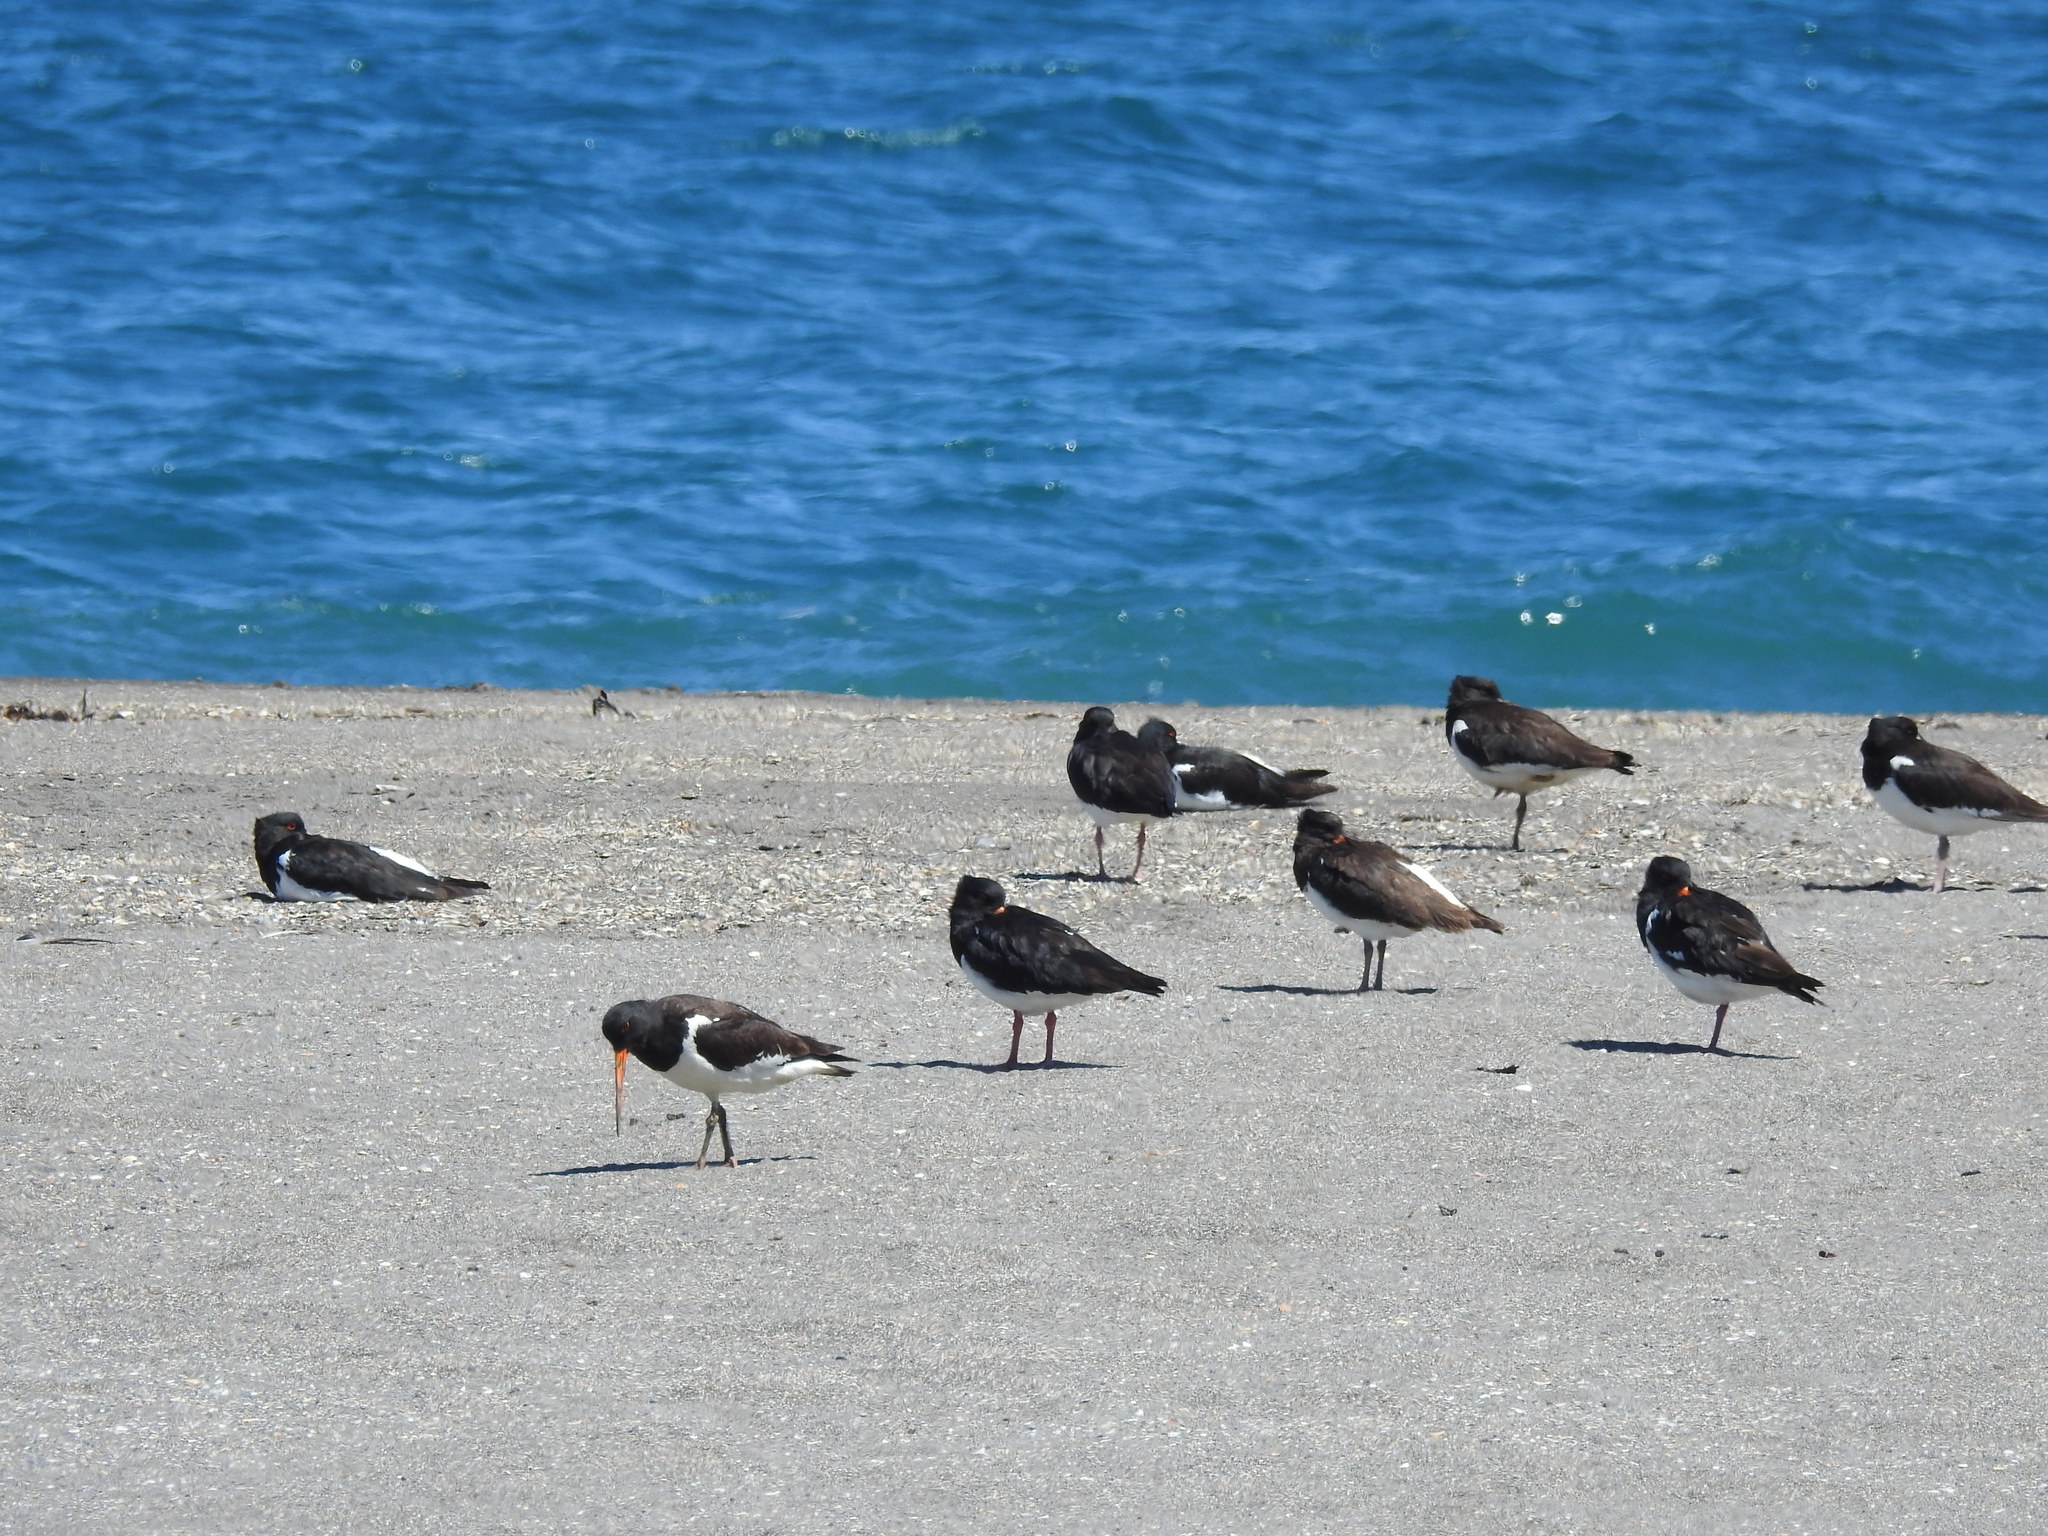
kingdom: Animalia
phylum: Chordata
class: Aves
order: Charadriiformes
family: Haematopodidae
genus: Haematopus
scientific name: Haematopus finschi
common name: South island oystercatcher
